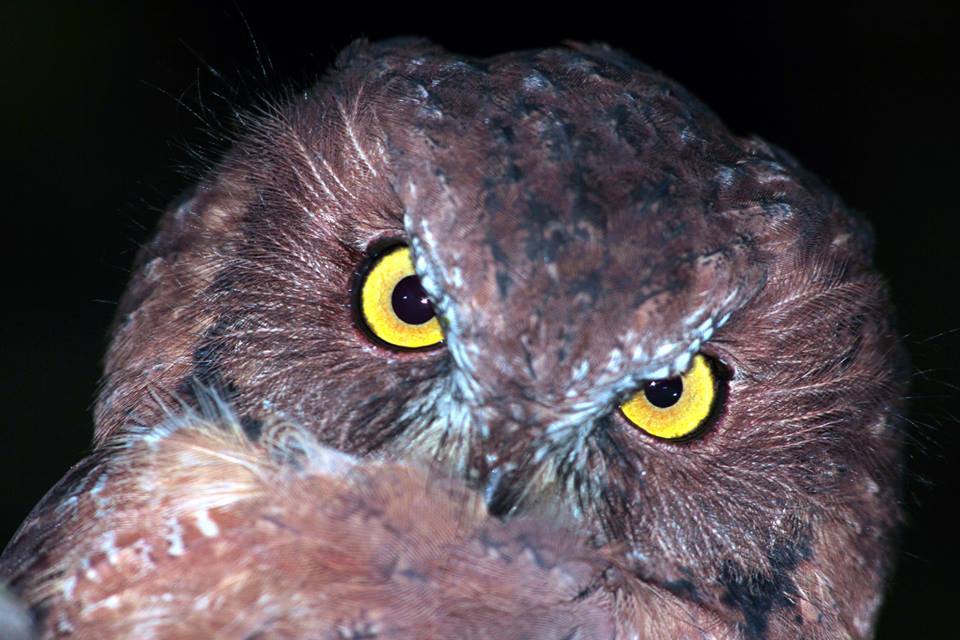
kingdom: Animalia
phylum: Chordata
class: Aves
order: Strigiformes
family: Strigidae
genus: Otus
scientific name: Otus rutilus
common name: Rainforest scops owl
